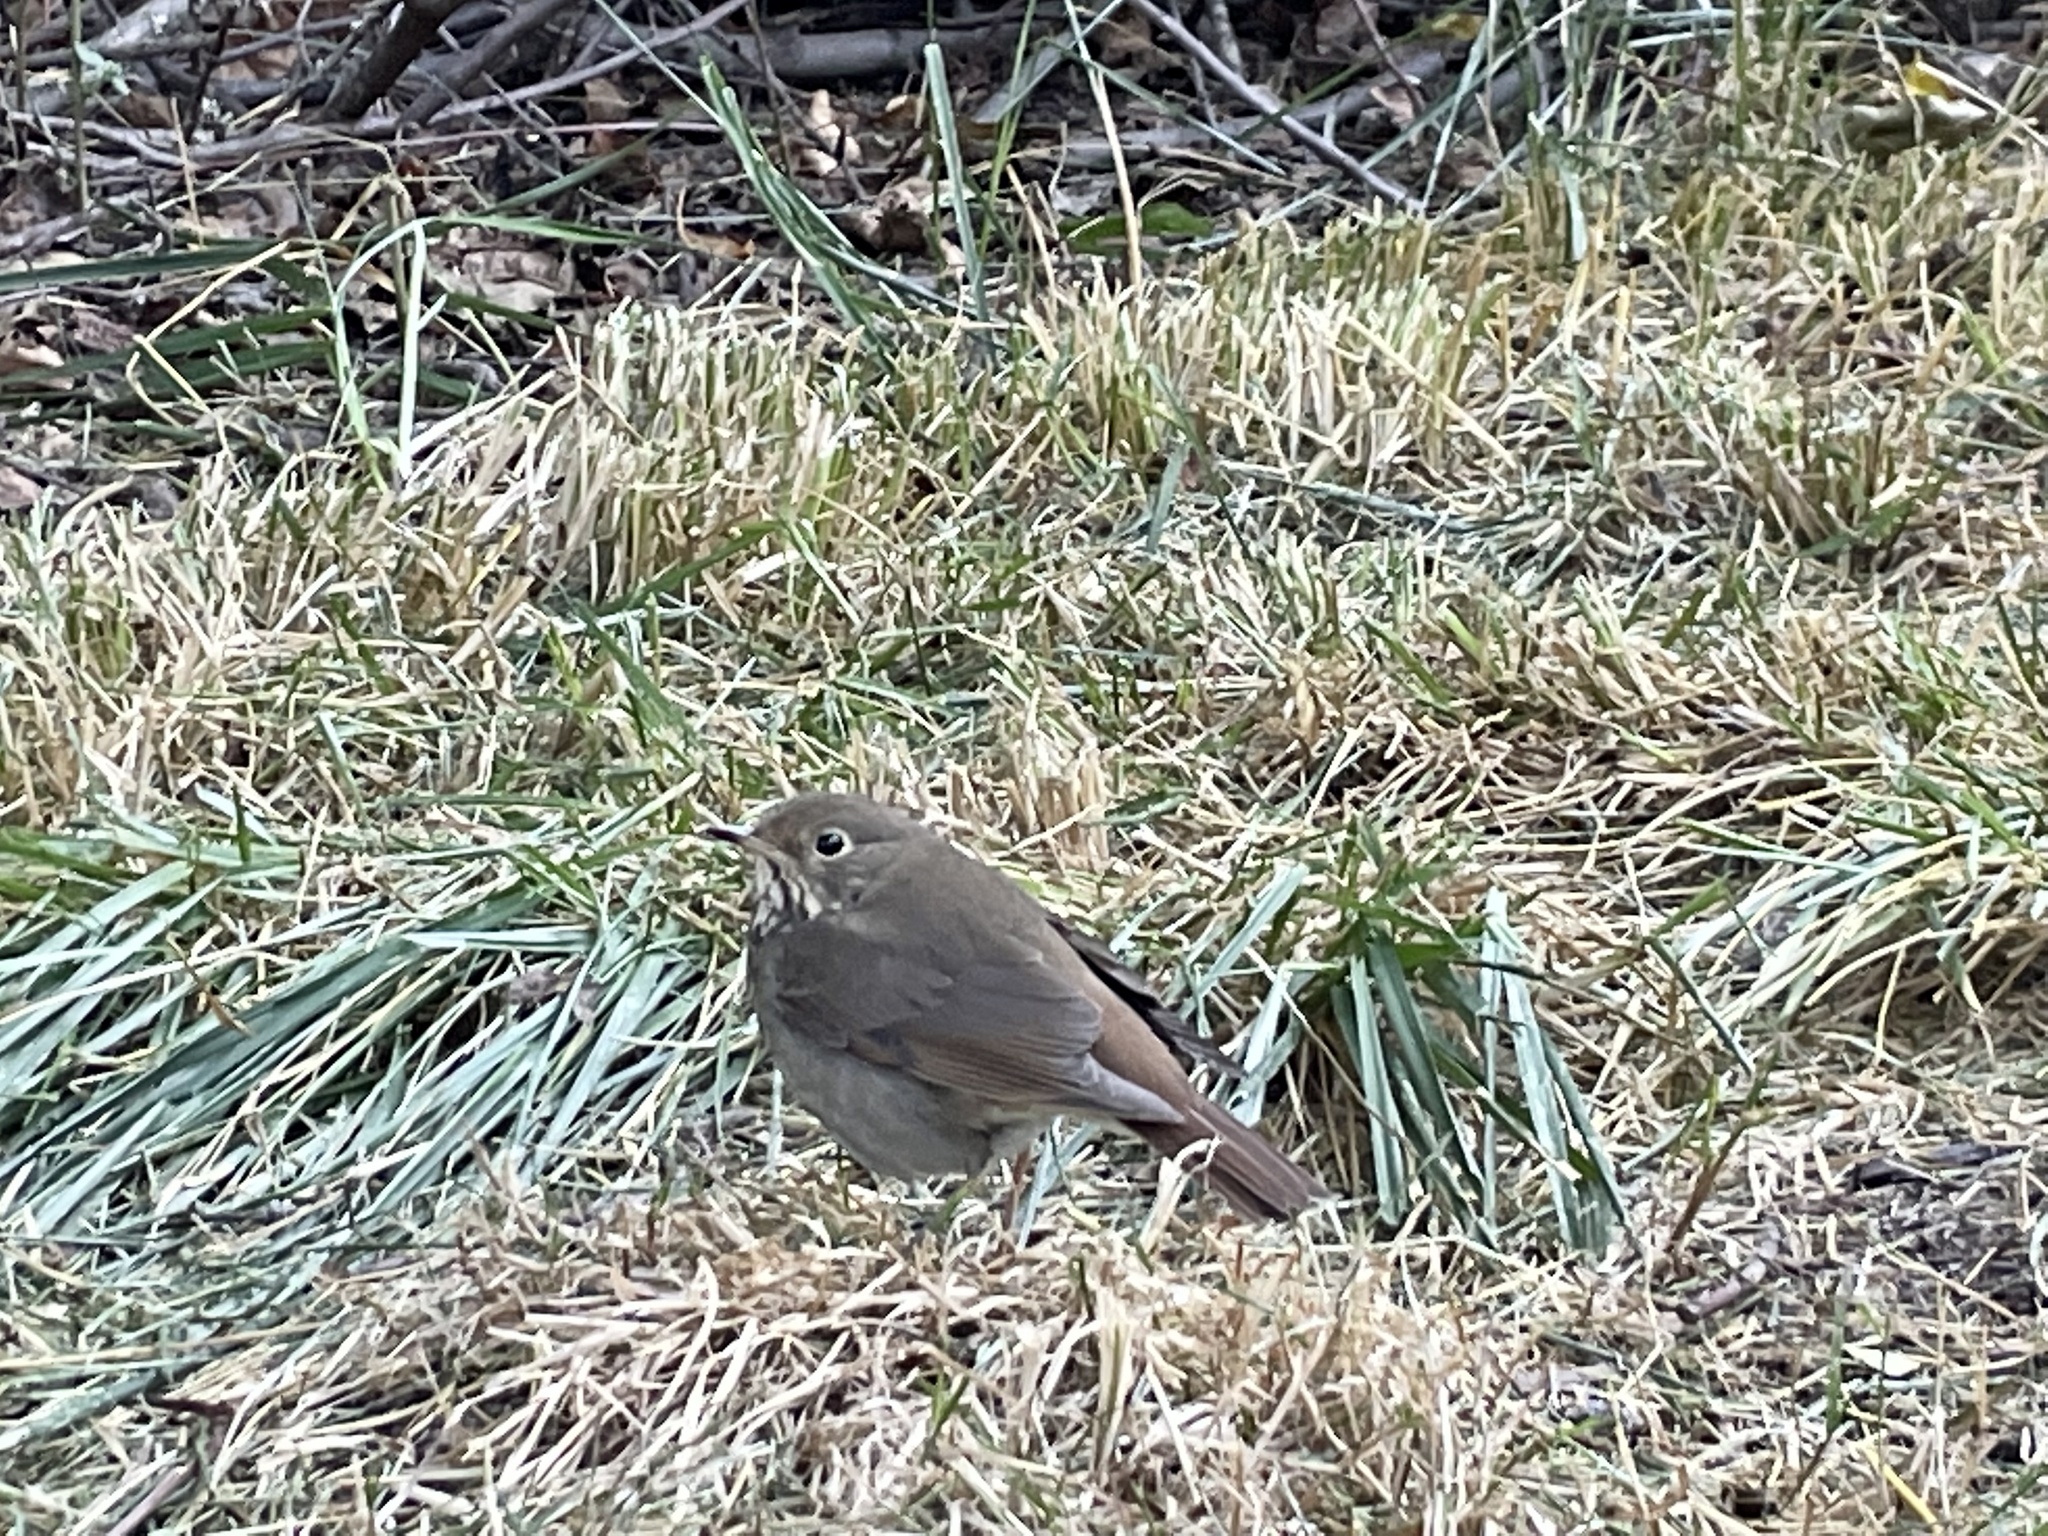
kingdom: Animalia
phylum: Chordata
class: Aves
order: Passeriformes
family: Turdidae
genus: Catharus
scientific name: Catharus guttatus
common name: Hermit thrush
